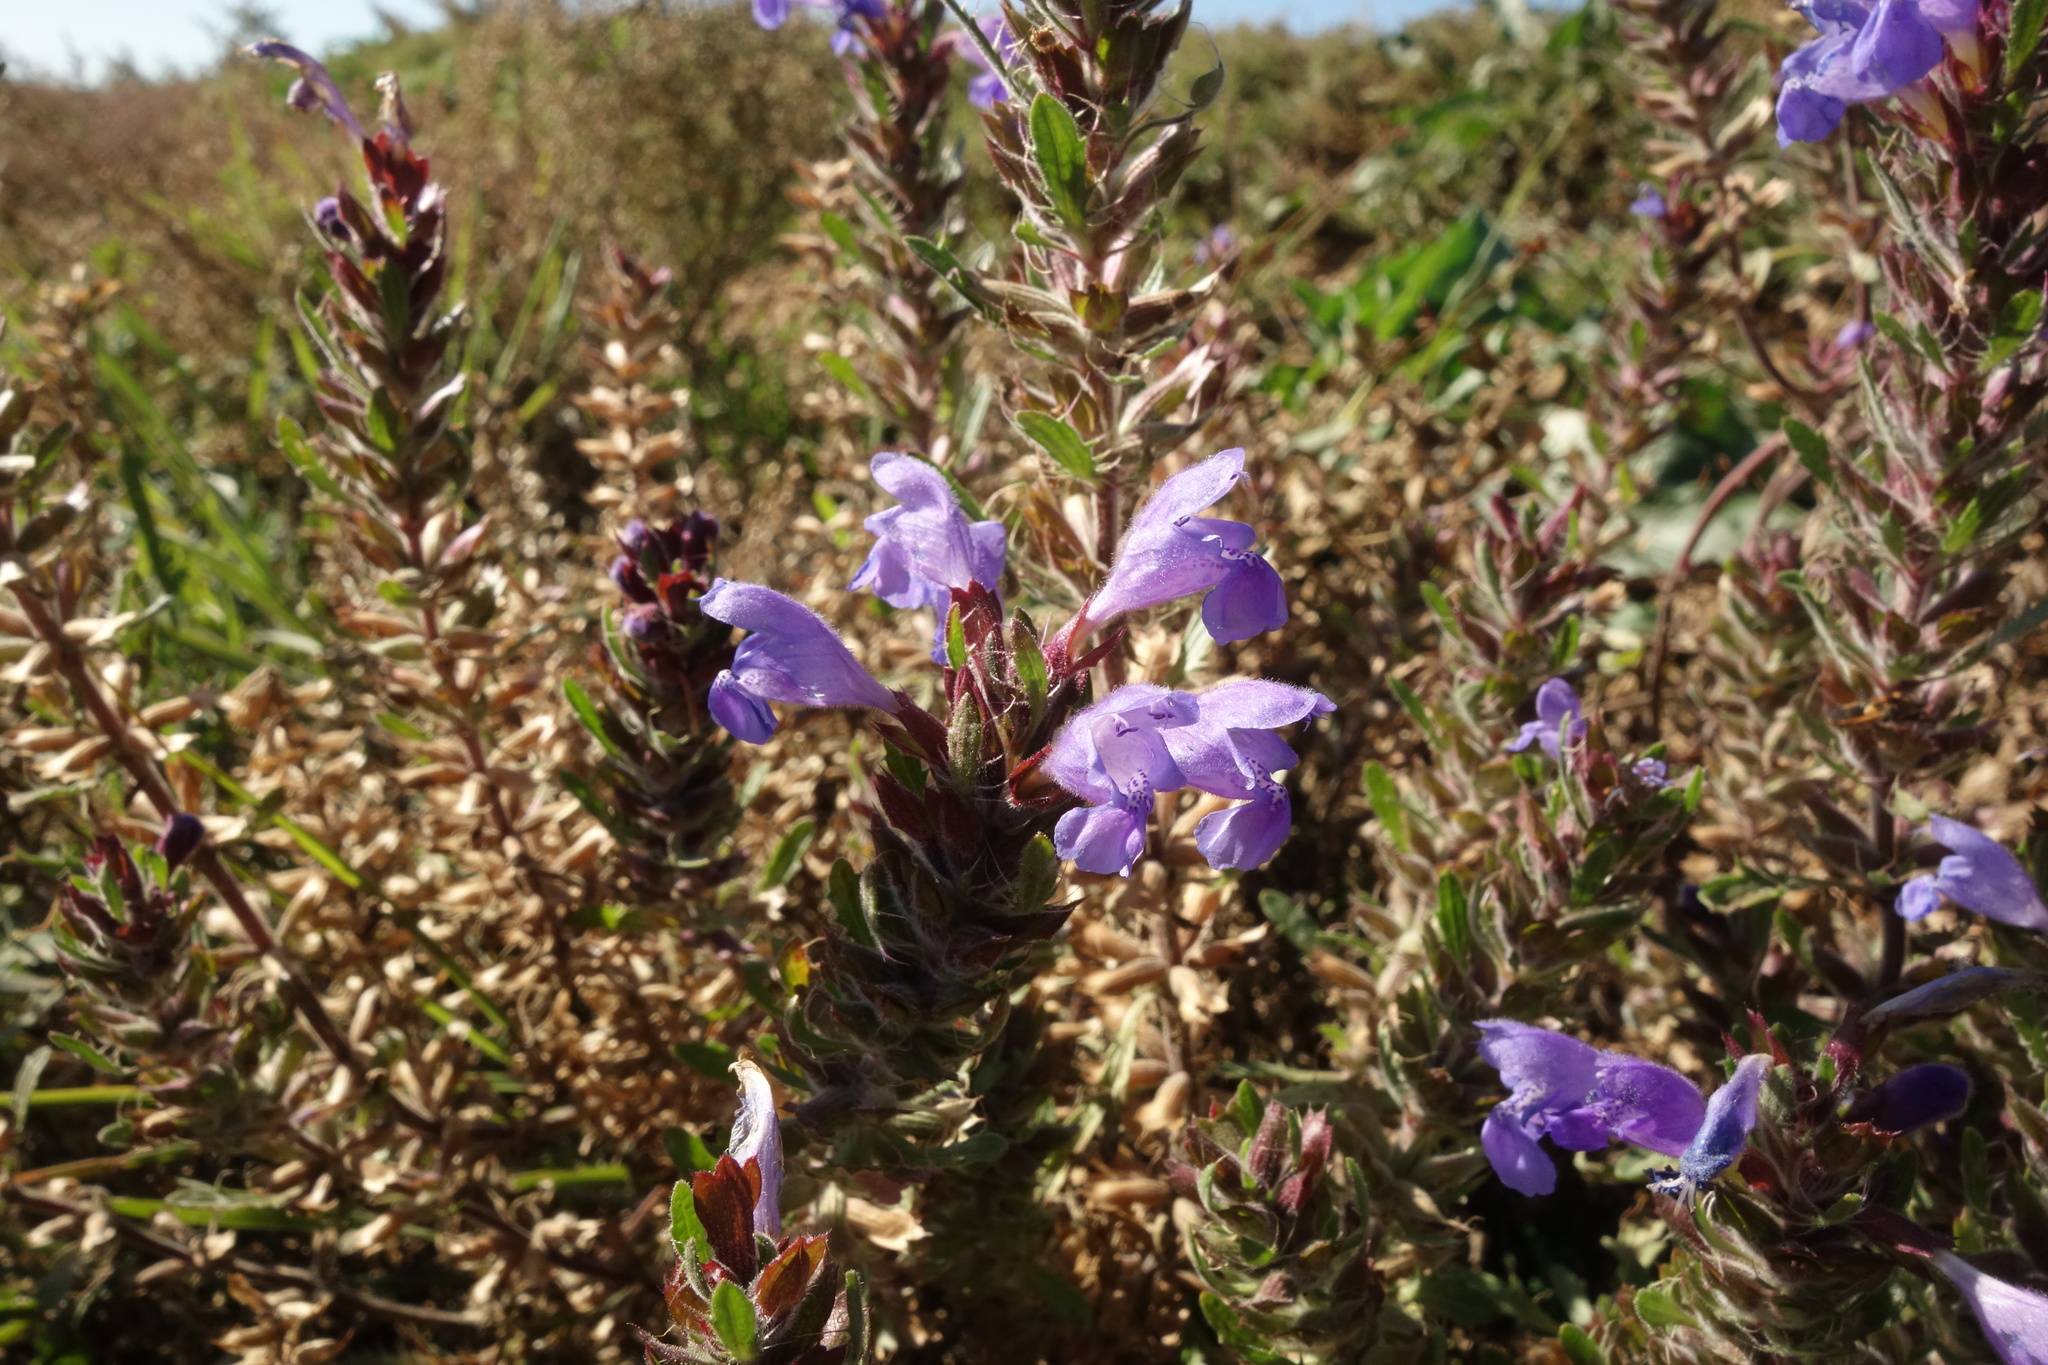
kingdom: Plantae
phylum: Tracheophyta
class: Magnoliopsida
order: Lamiales
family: Lamiaceae
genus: Dracocephalum
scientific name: Dracocephalum olchonense
